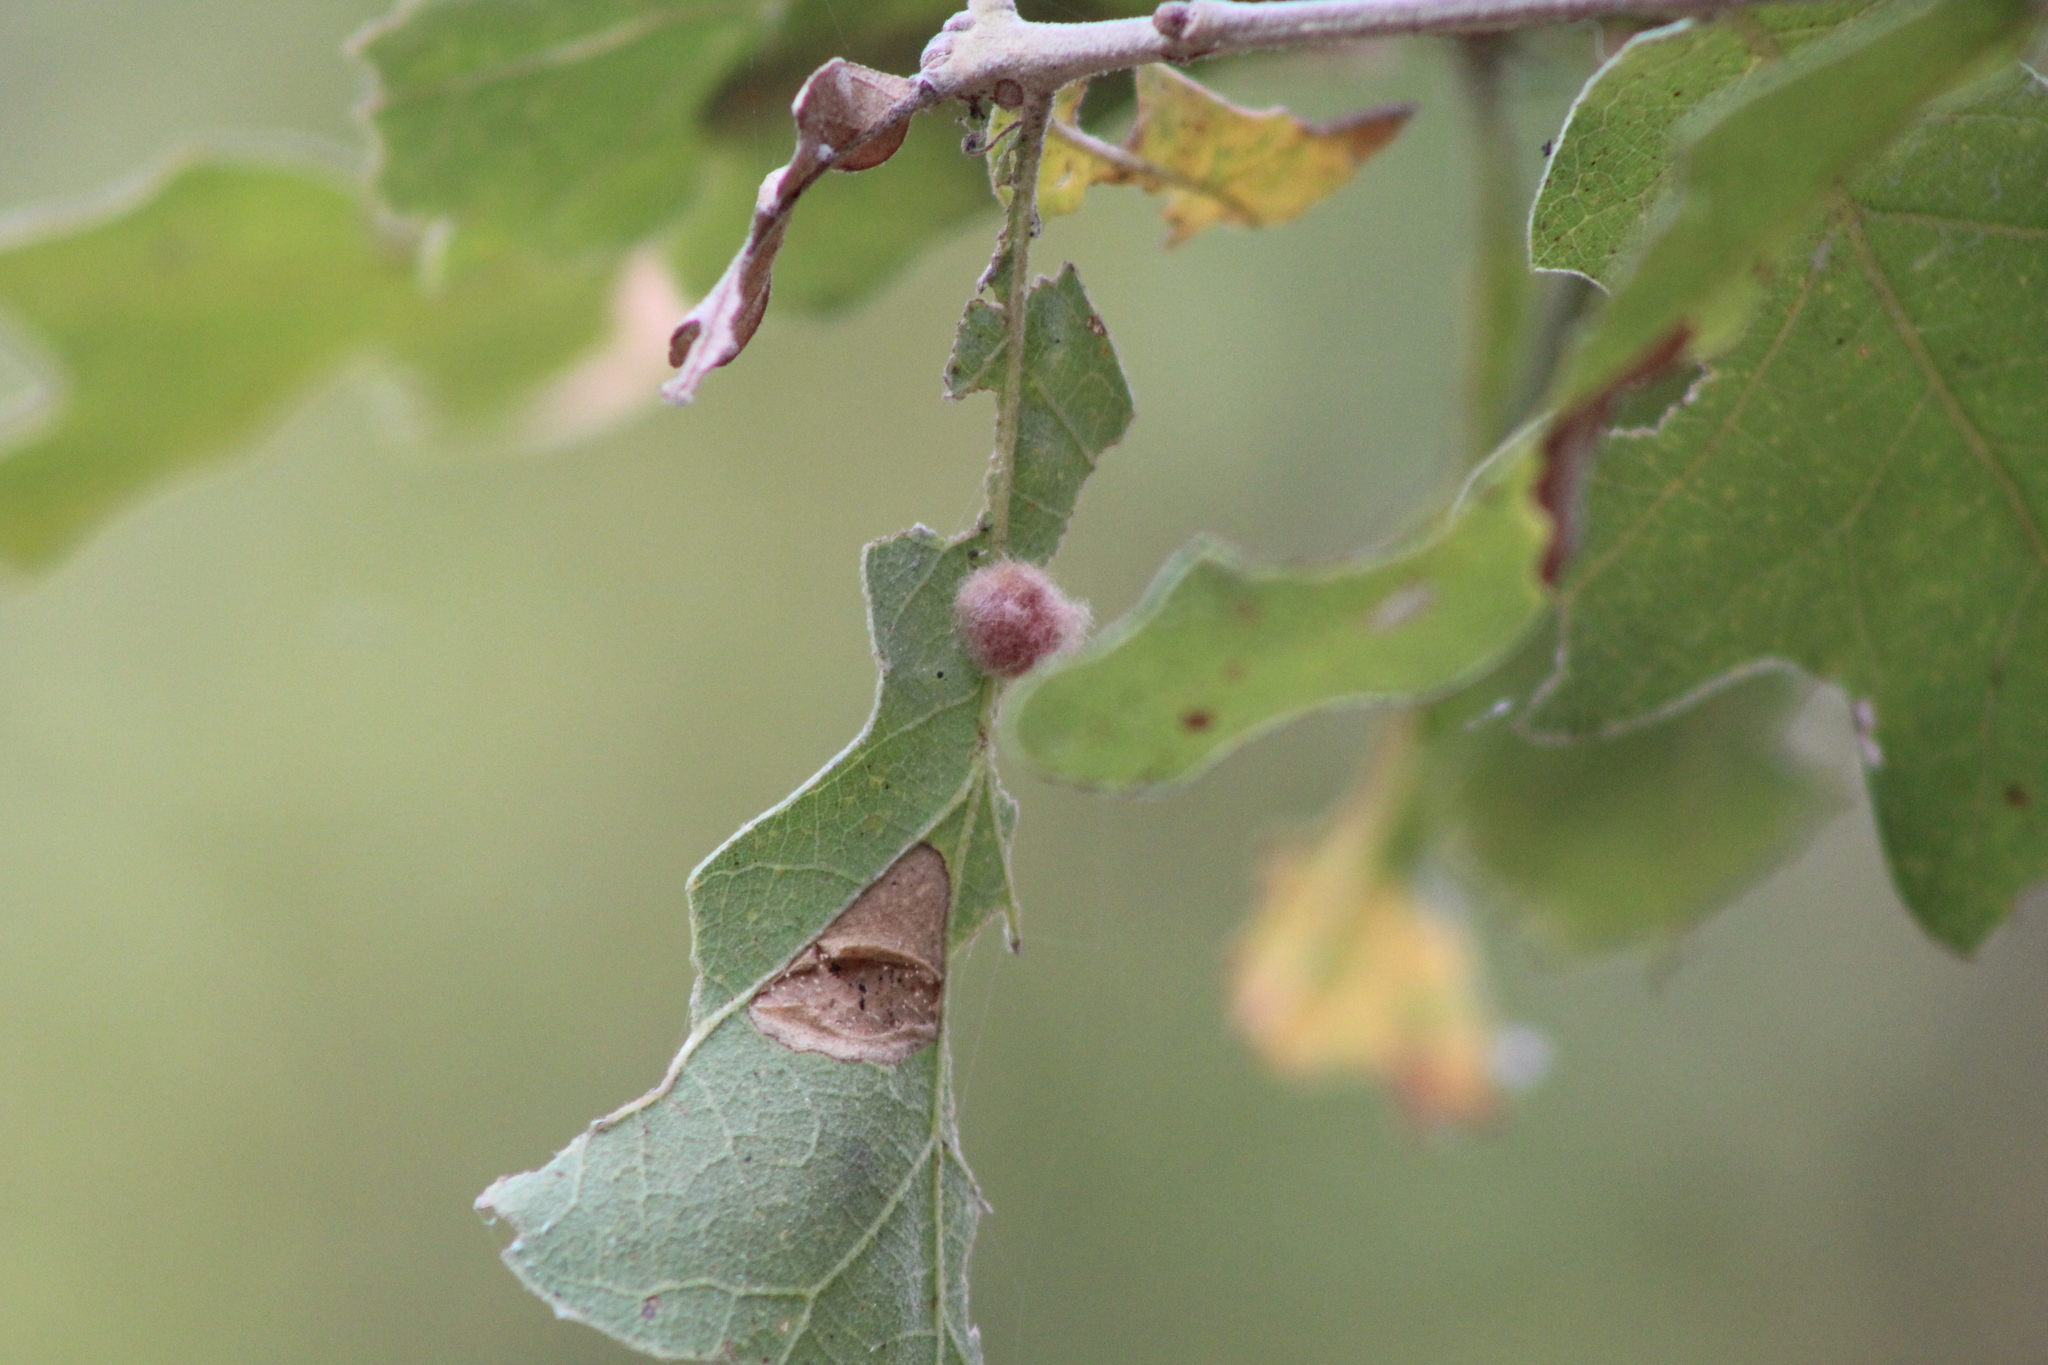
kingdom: Animalia
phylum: Arthropoda
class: Insecta
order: Hymenoptera
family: Cynipidae
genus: Andricus
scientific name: Andricus Druon ignotum
